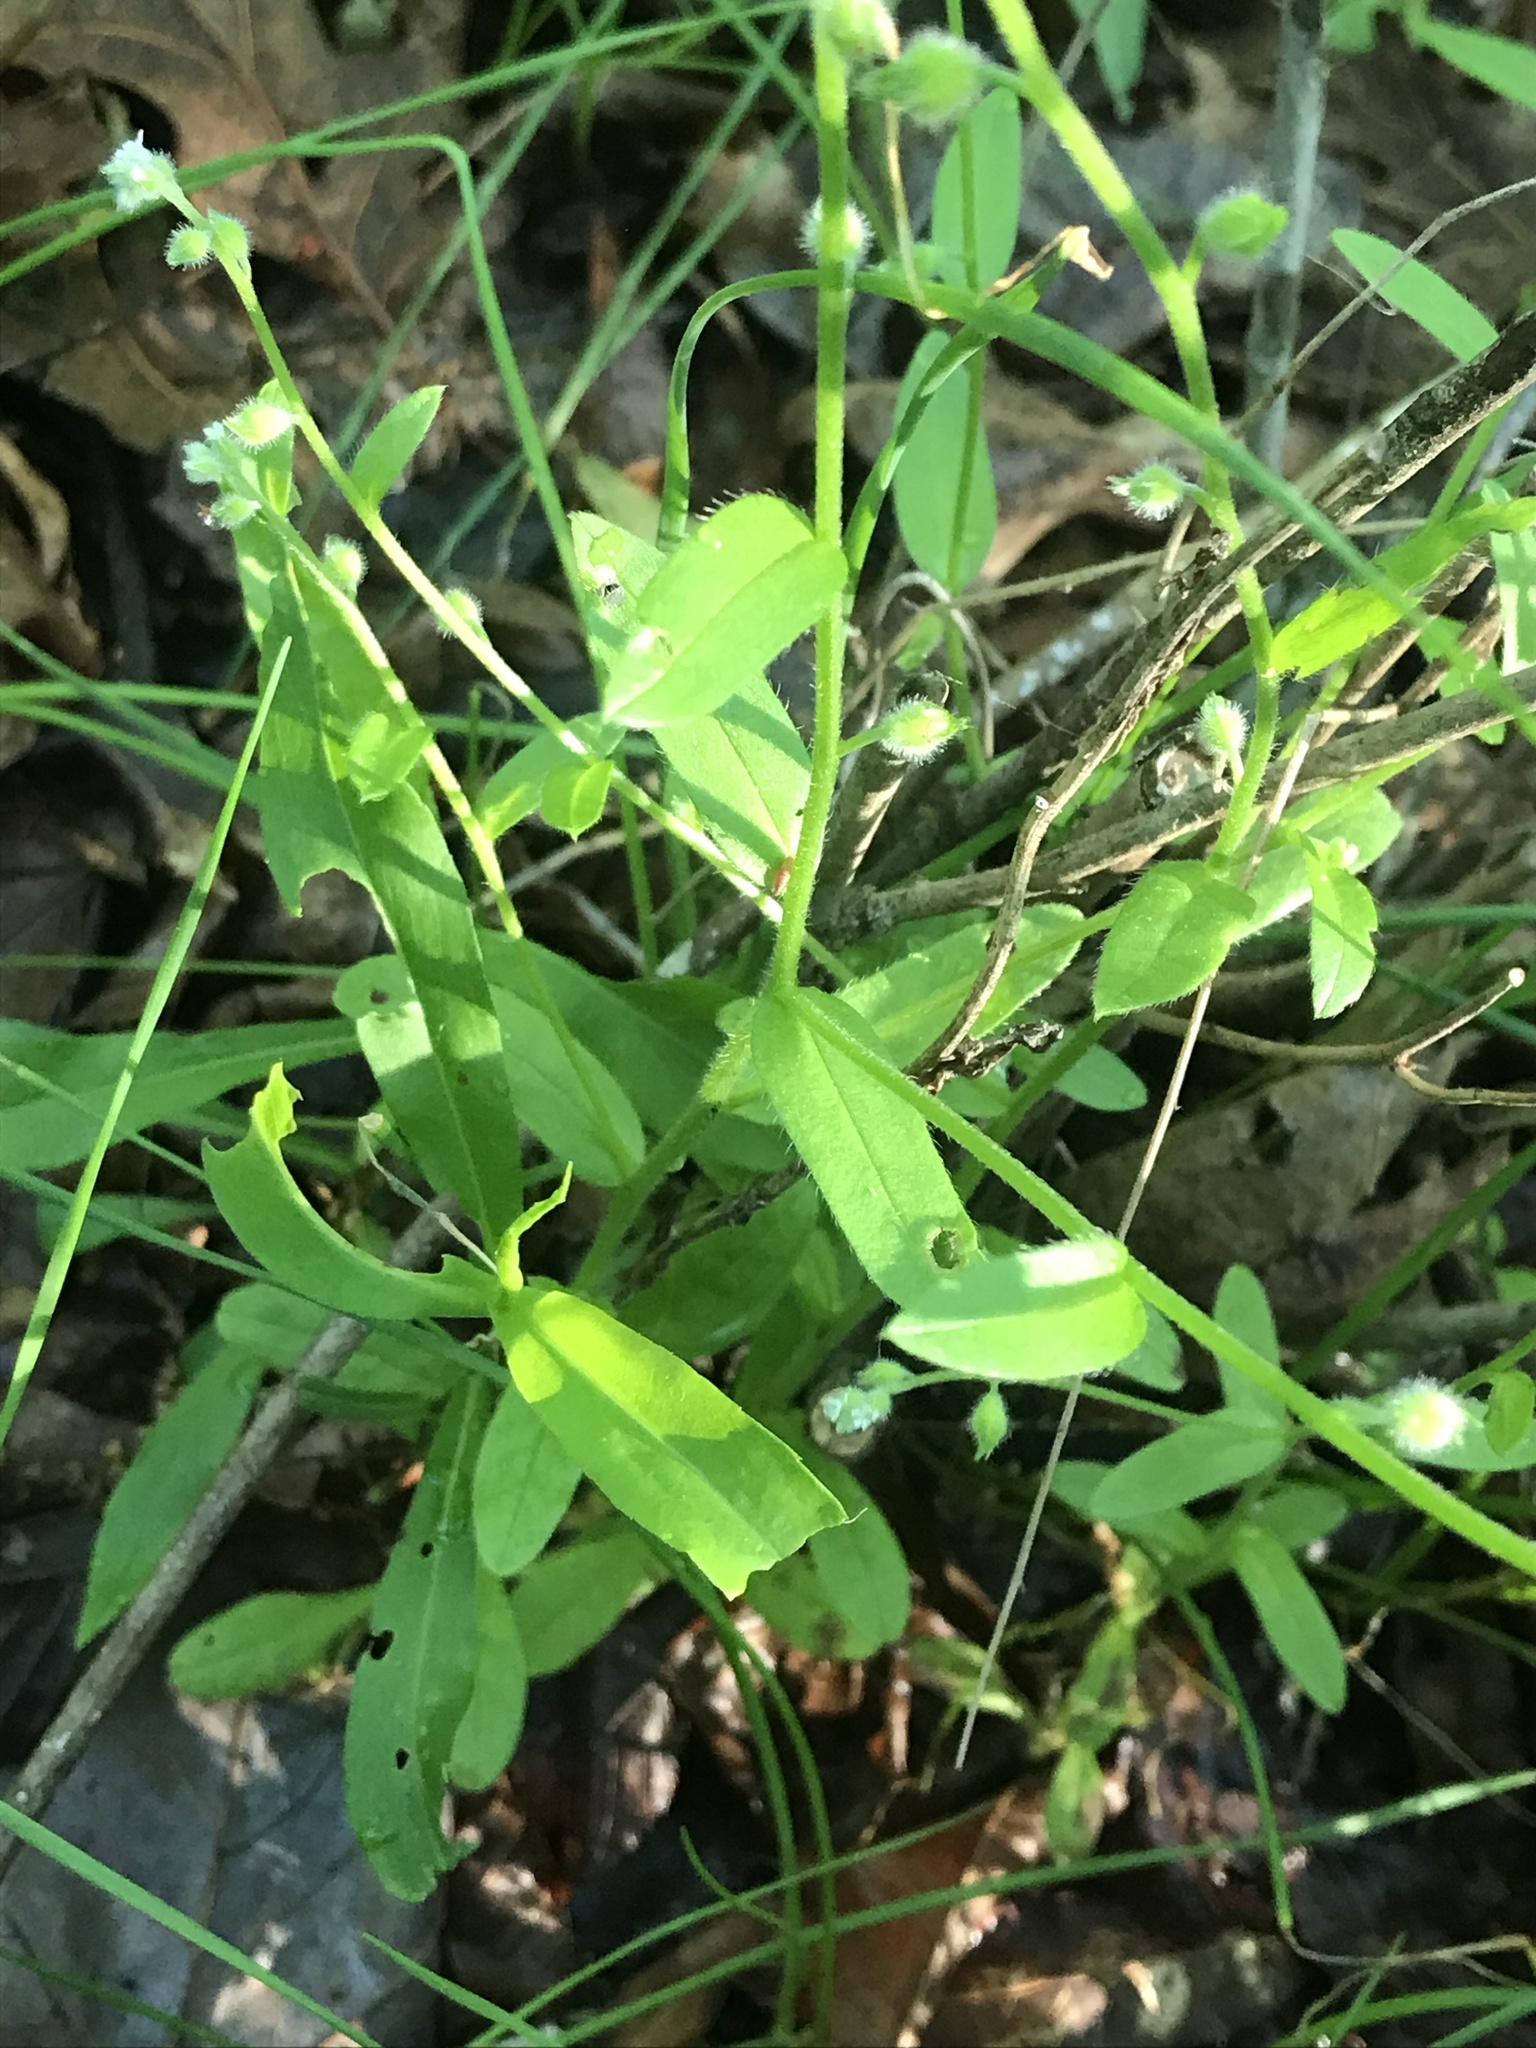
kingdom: Plantae
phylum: Tracheophyta
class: Magnoliopsida
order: Boraginales
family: Boraginaceae
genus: Myosotis
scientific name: Myosotis macrosperma
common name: Large-seed forget-me-not
